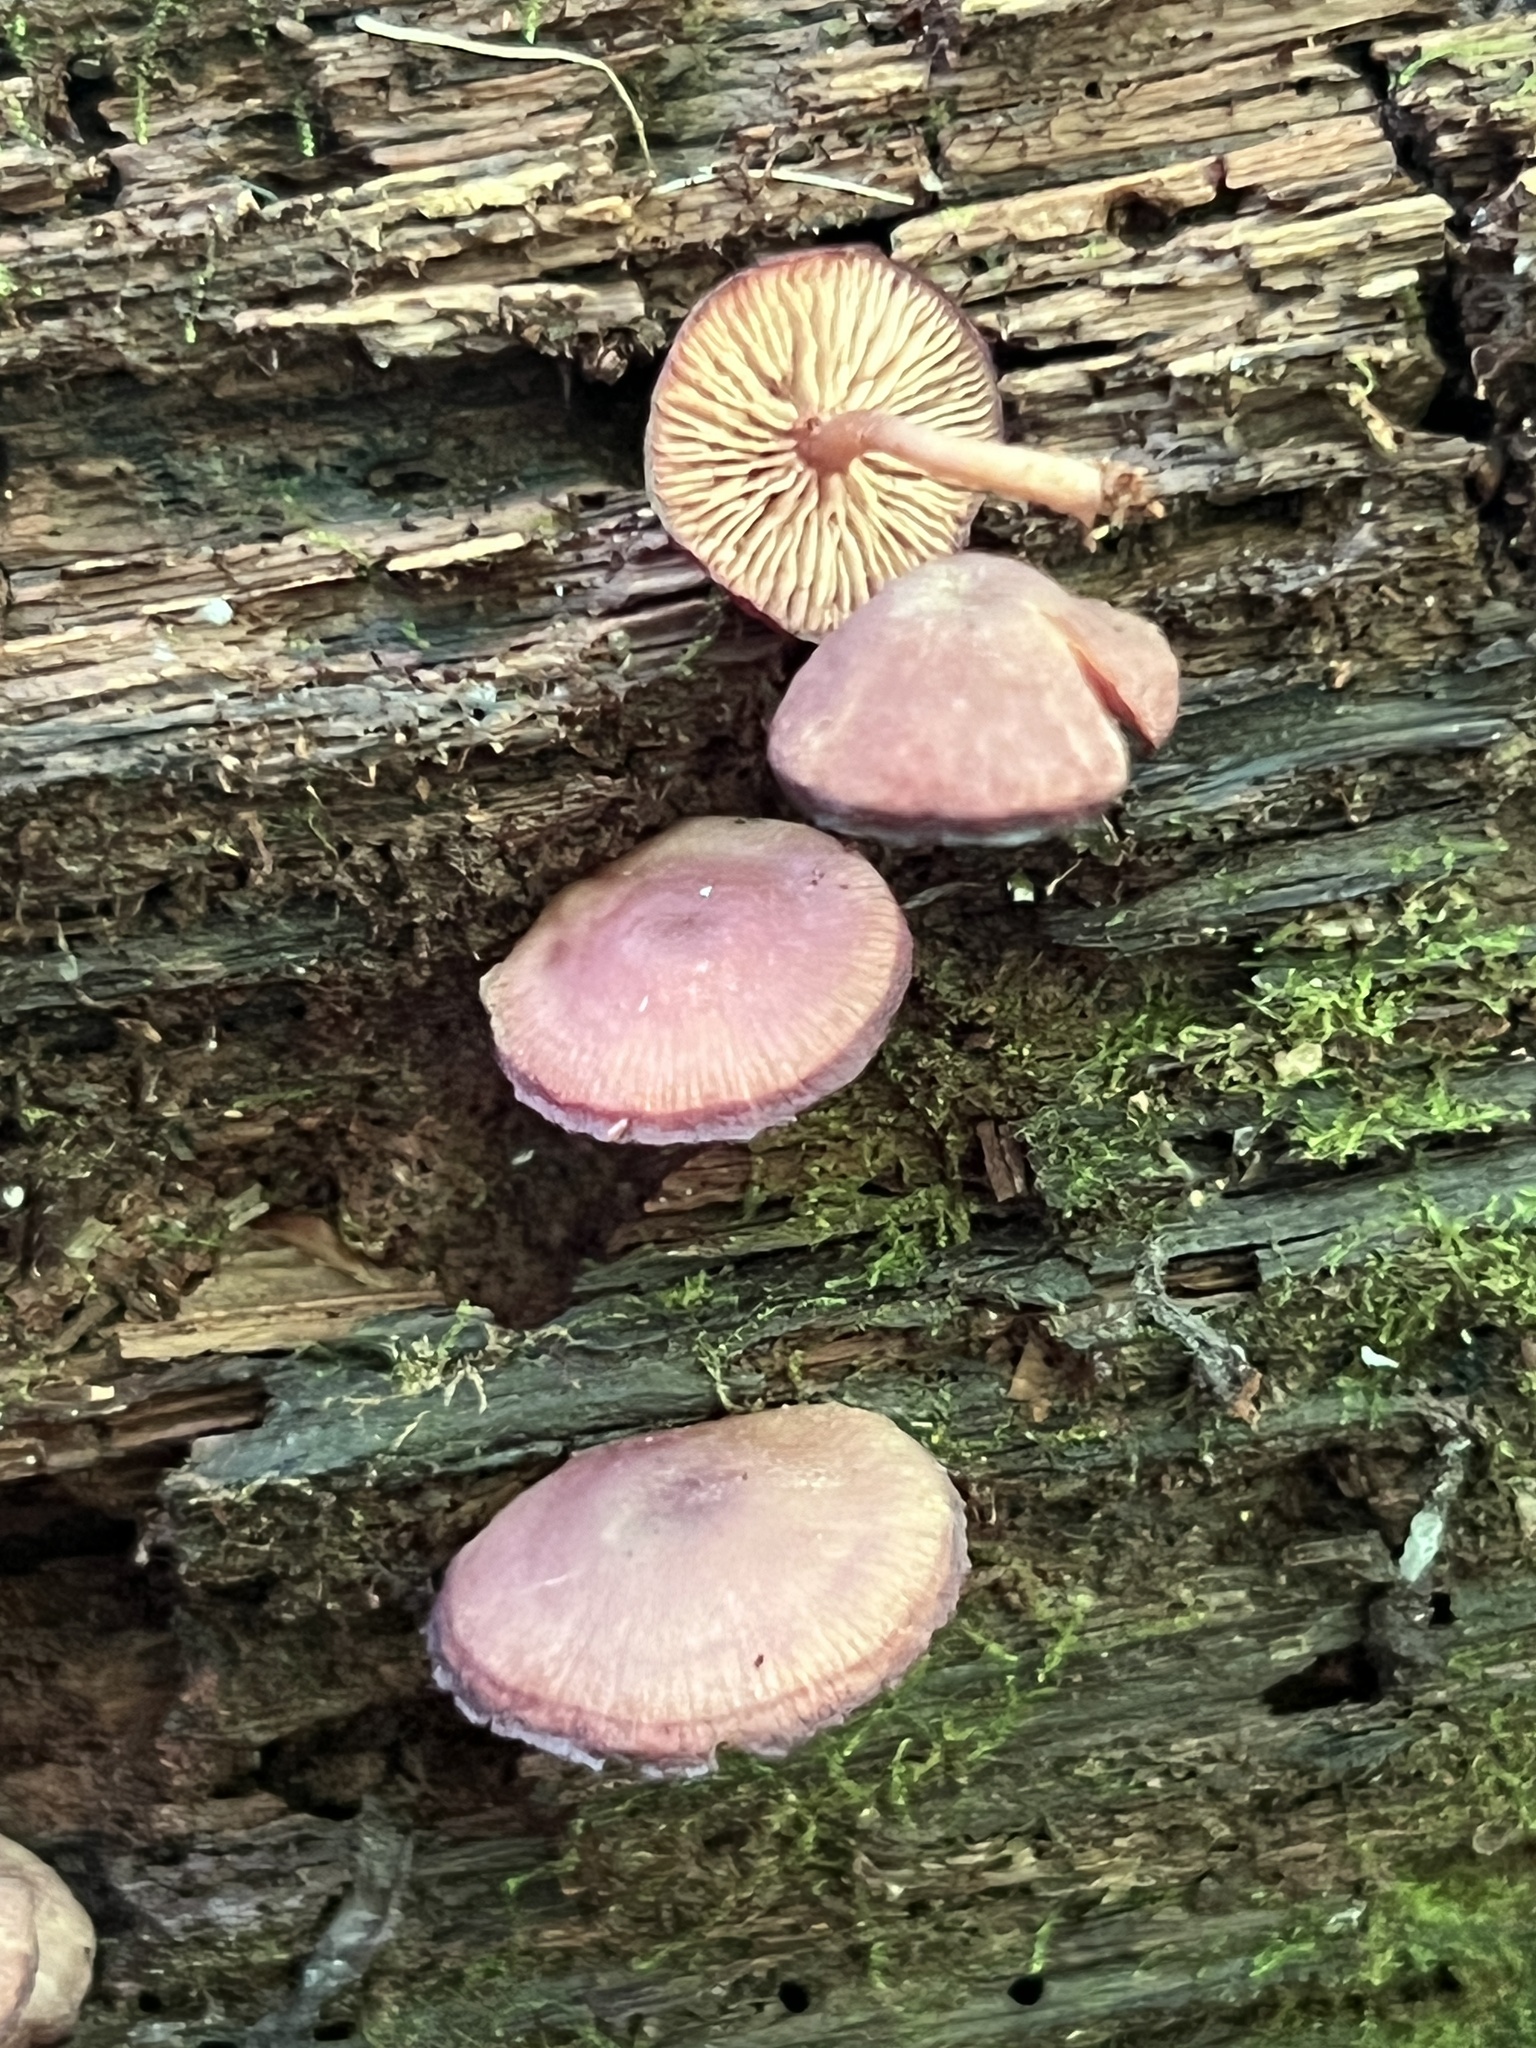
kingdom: Fungi
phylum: Basidiomycota
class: Agaricomycetes
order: Agaricales
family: Callistosporiaceae
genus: Callistosporium
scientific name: Callistosporium purpureomarginatum
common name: Purple-edged lute
